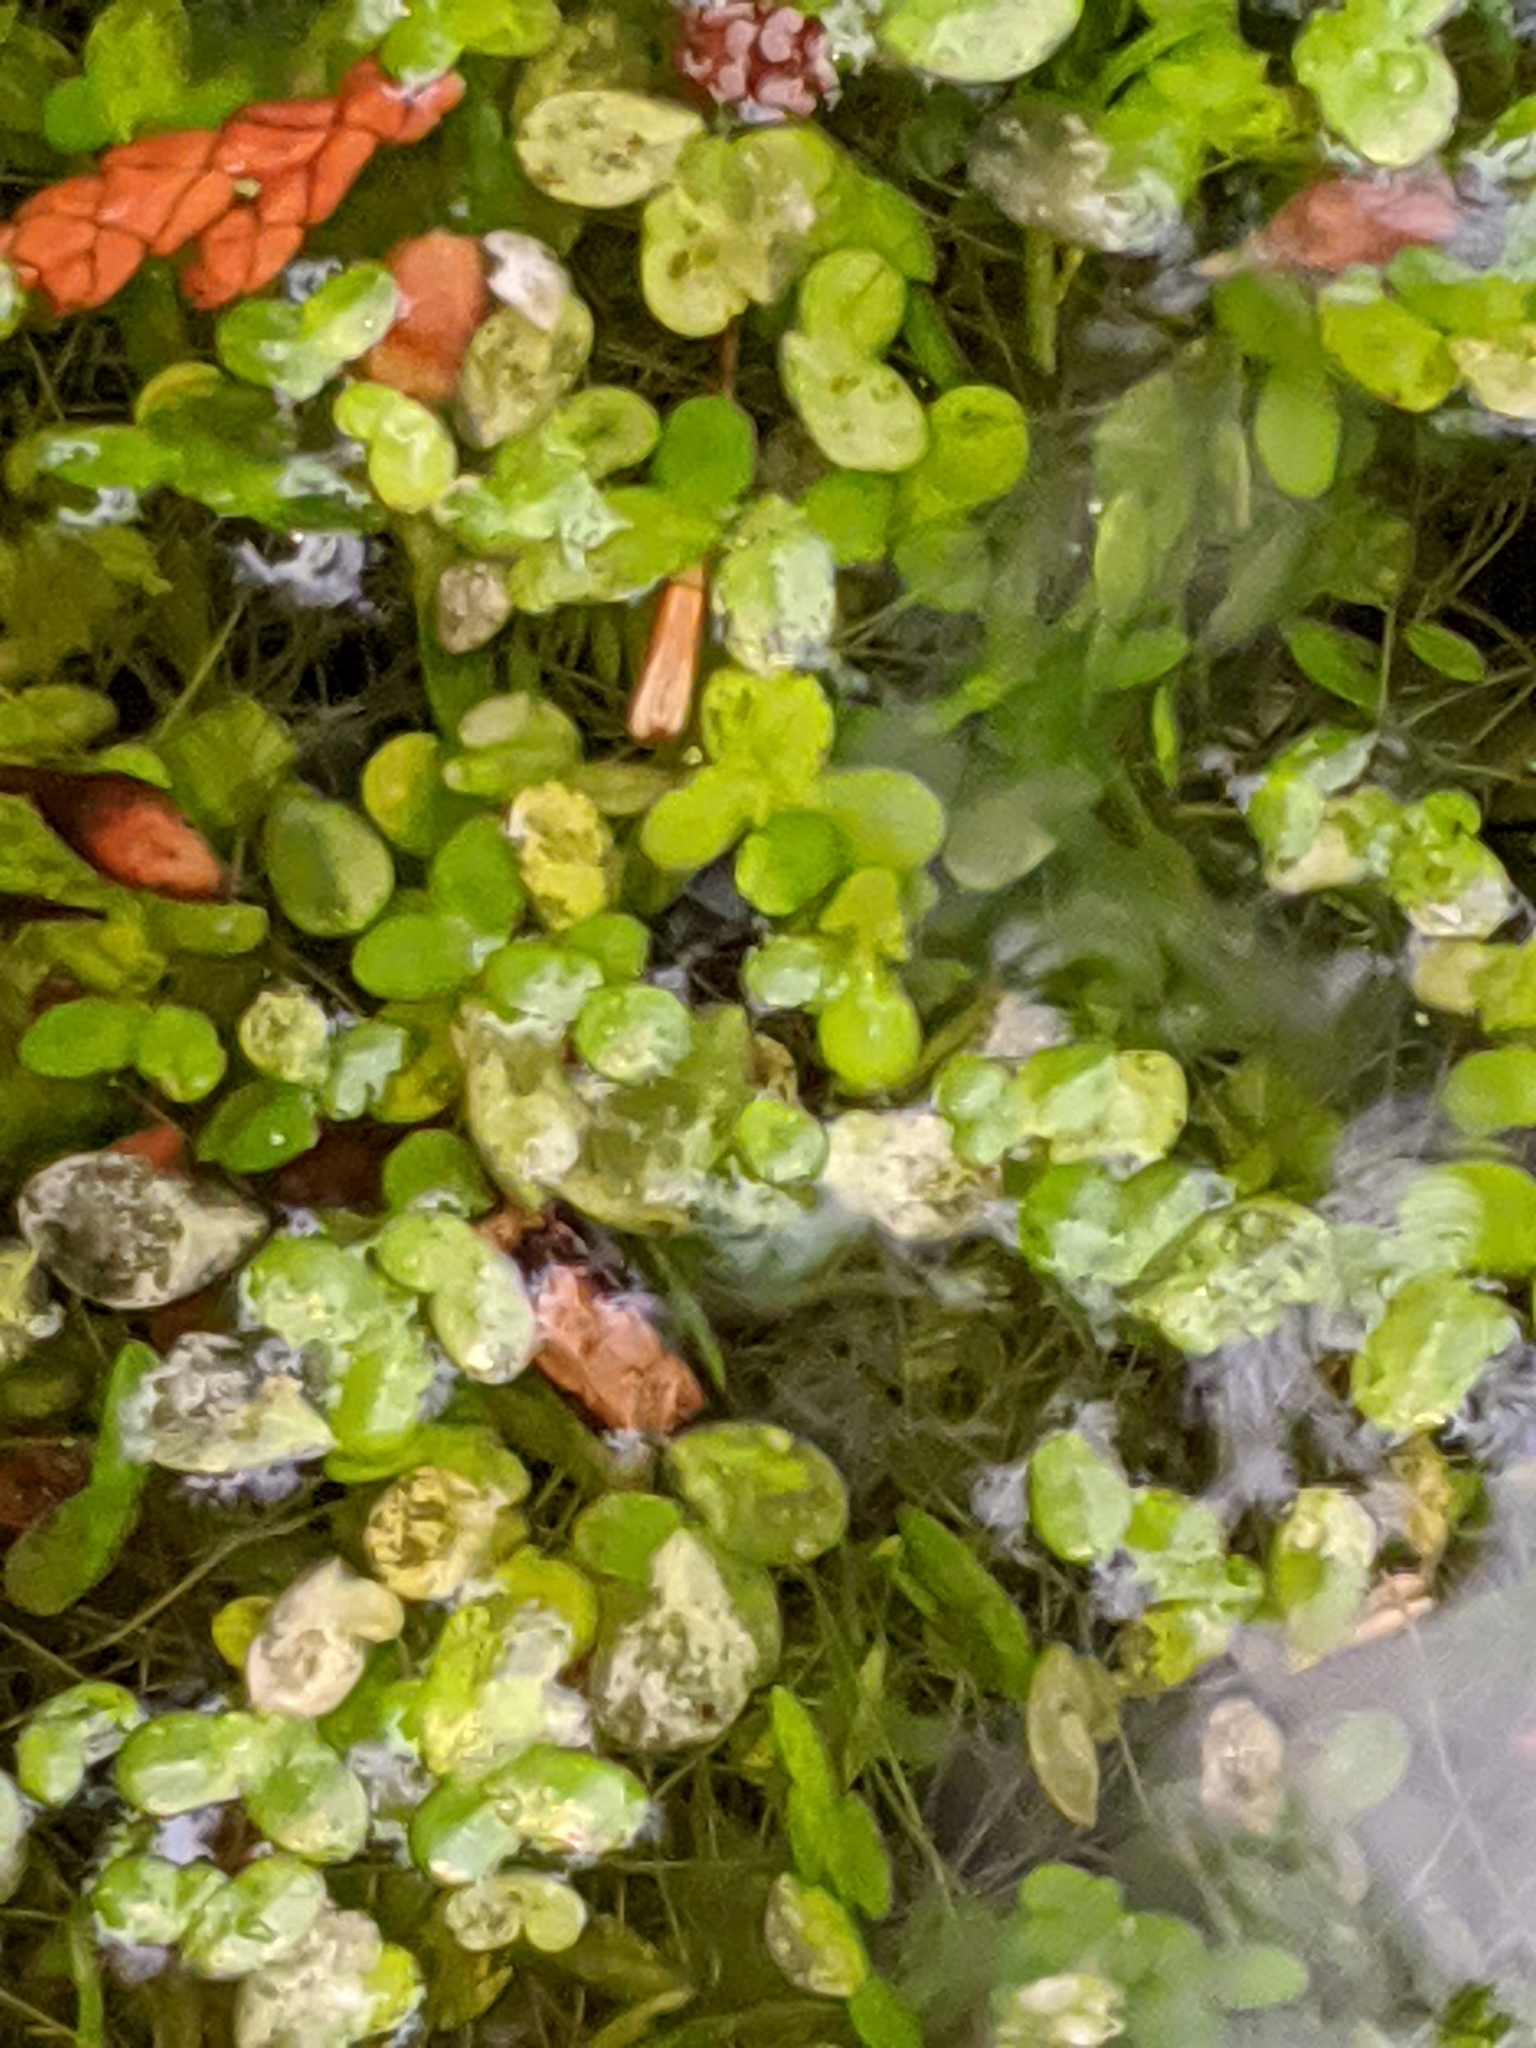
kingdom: Plantae
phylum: Tracheophyta
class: Liliopsida
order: Alismatales
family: Araceae
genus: Lemna
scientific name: Lemna minor
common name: Common duckweed
